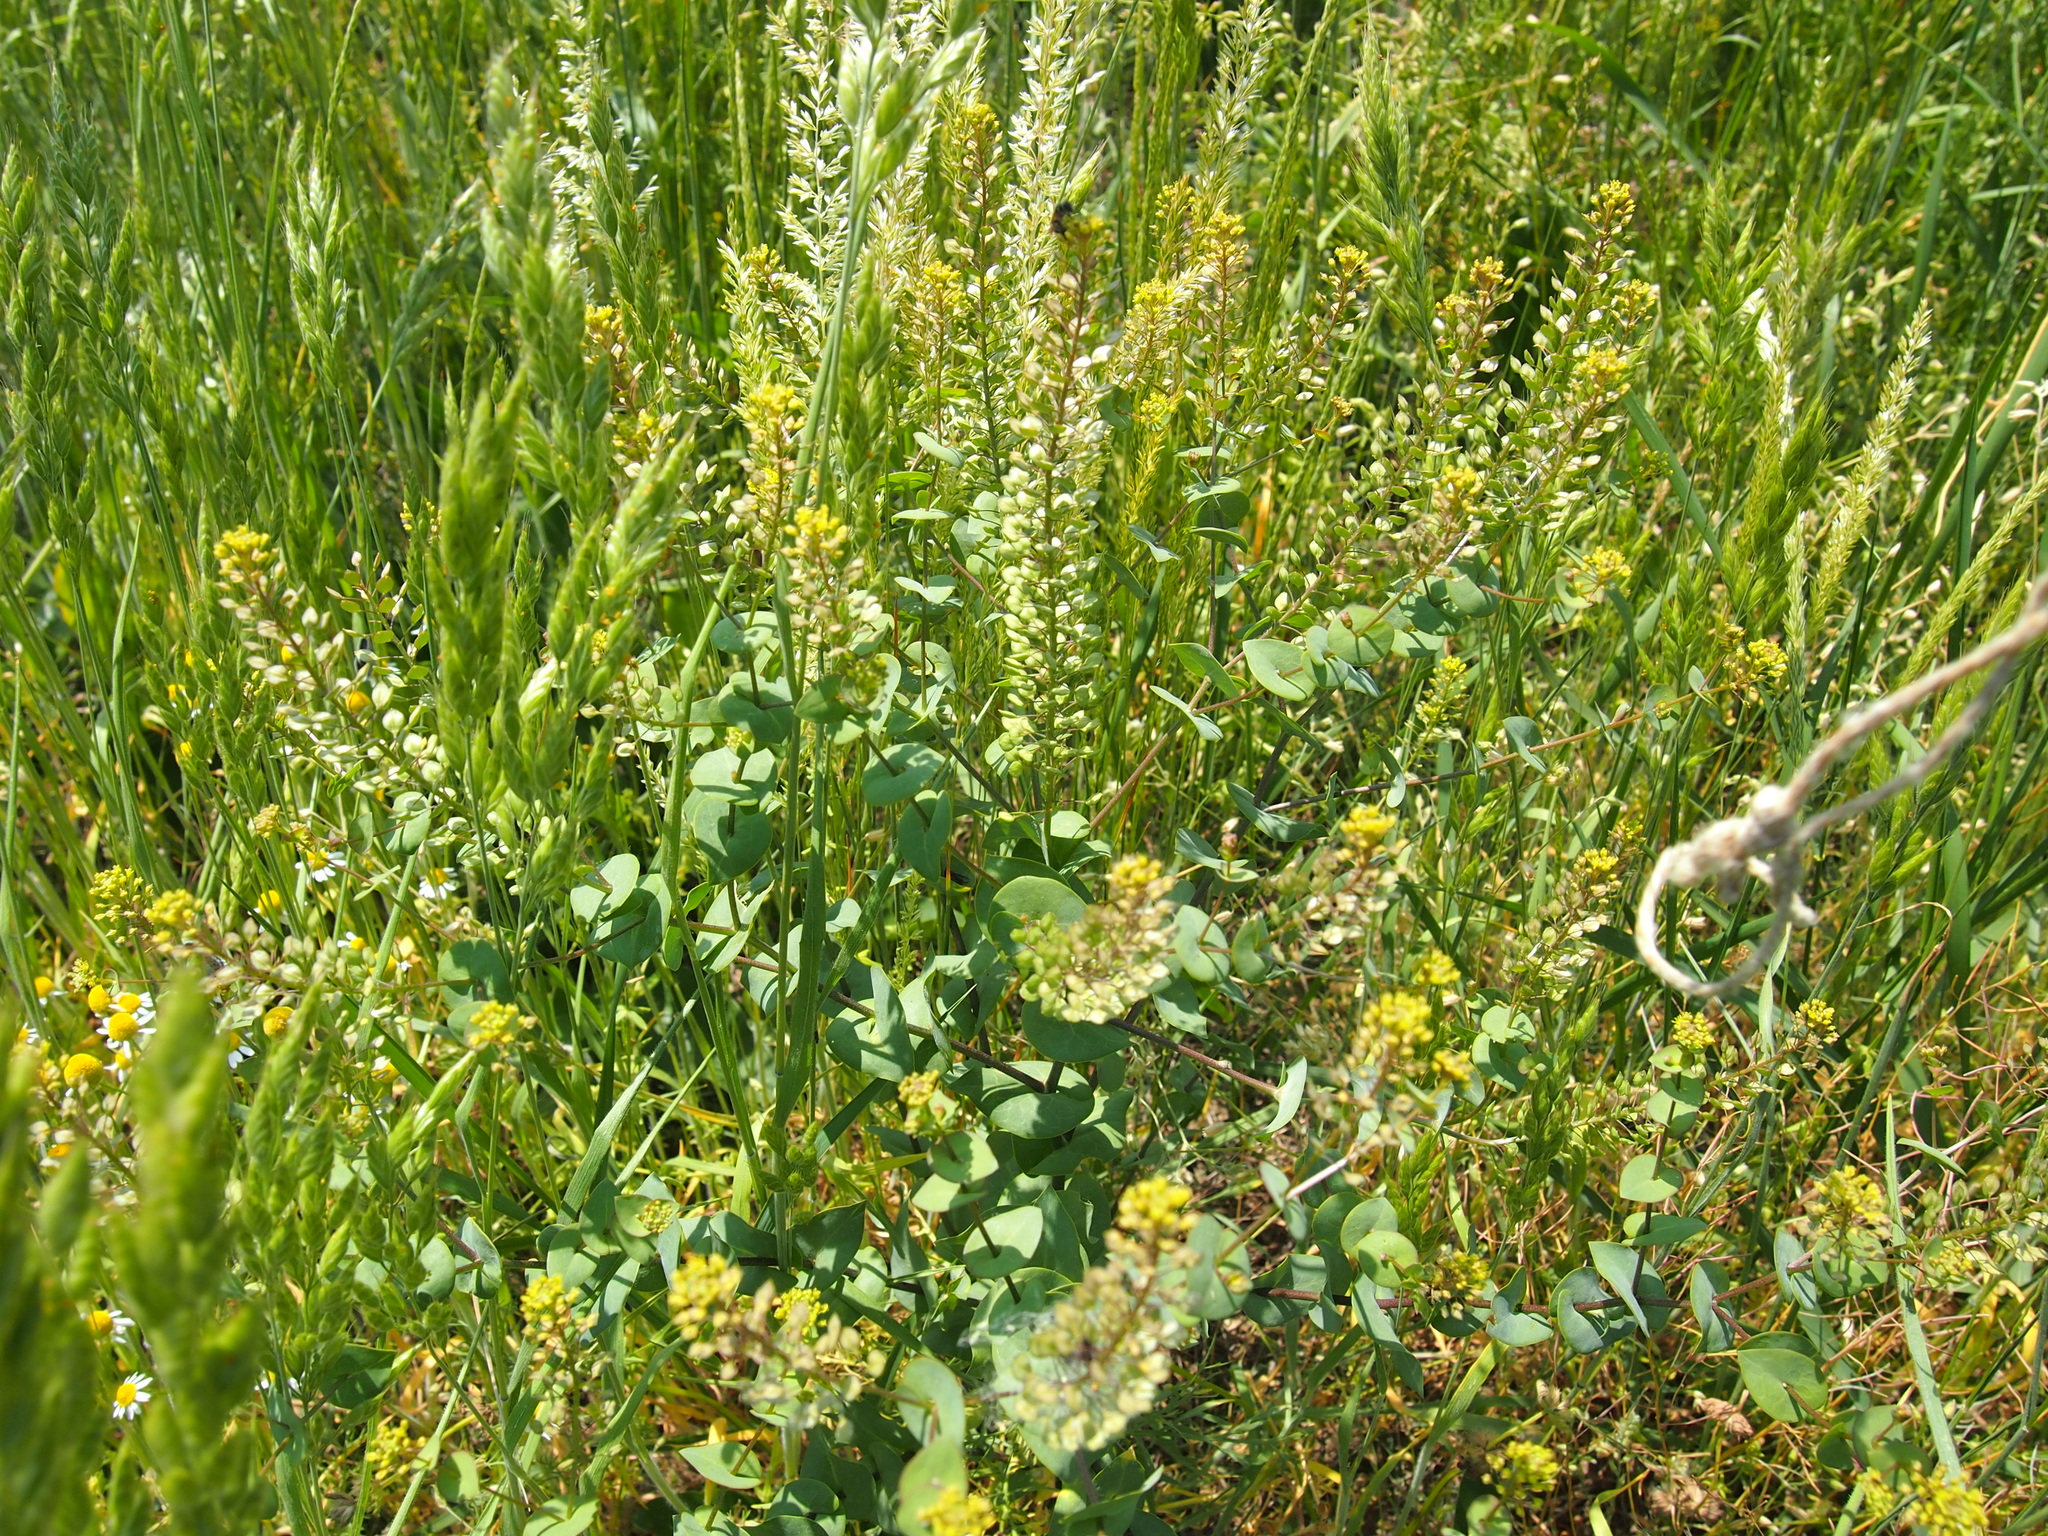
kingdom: Plantae
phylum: Tracheophyta
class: Magnoliopsida
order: Brassicales
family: Brassicaceae
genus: Lepidium
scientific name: Lepidium perfoliatum
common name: Perfoliate pepperwort
